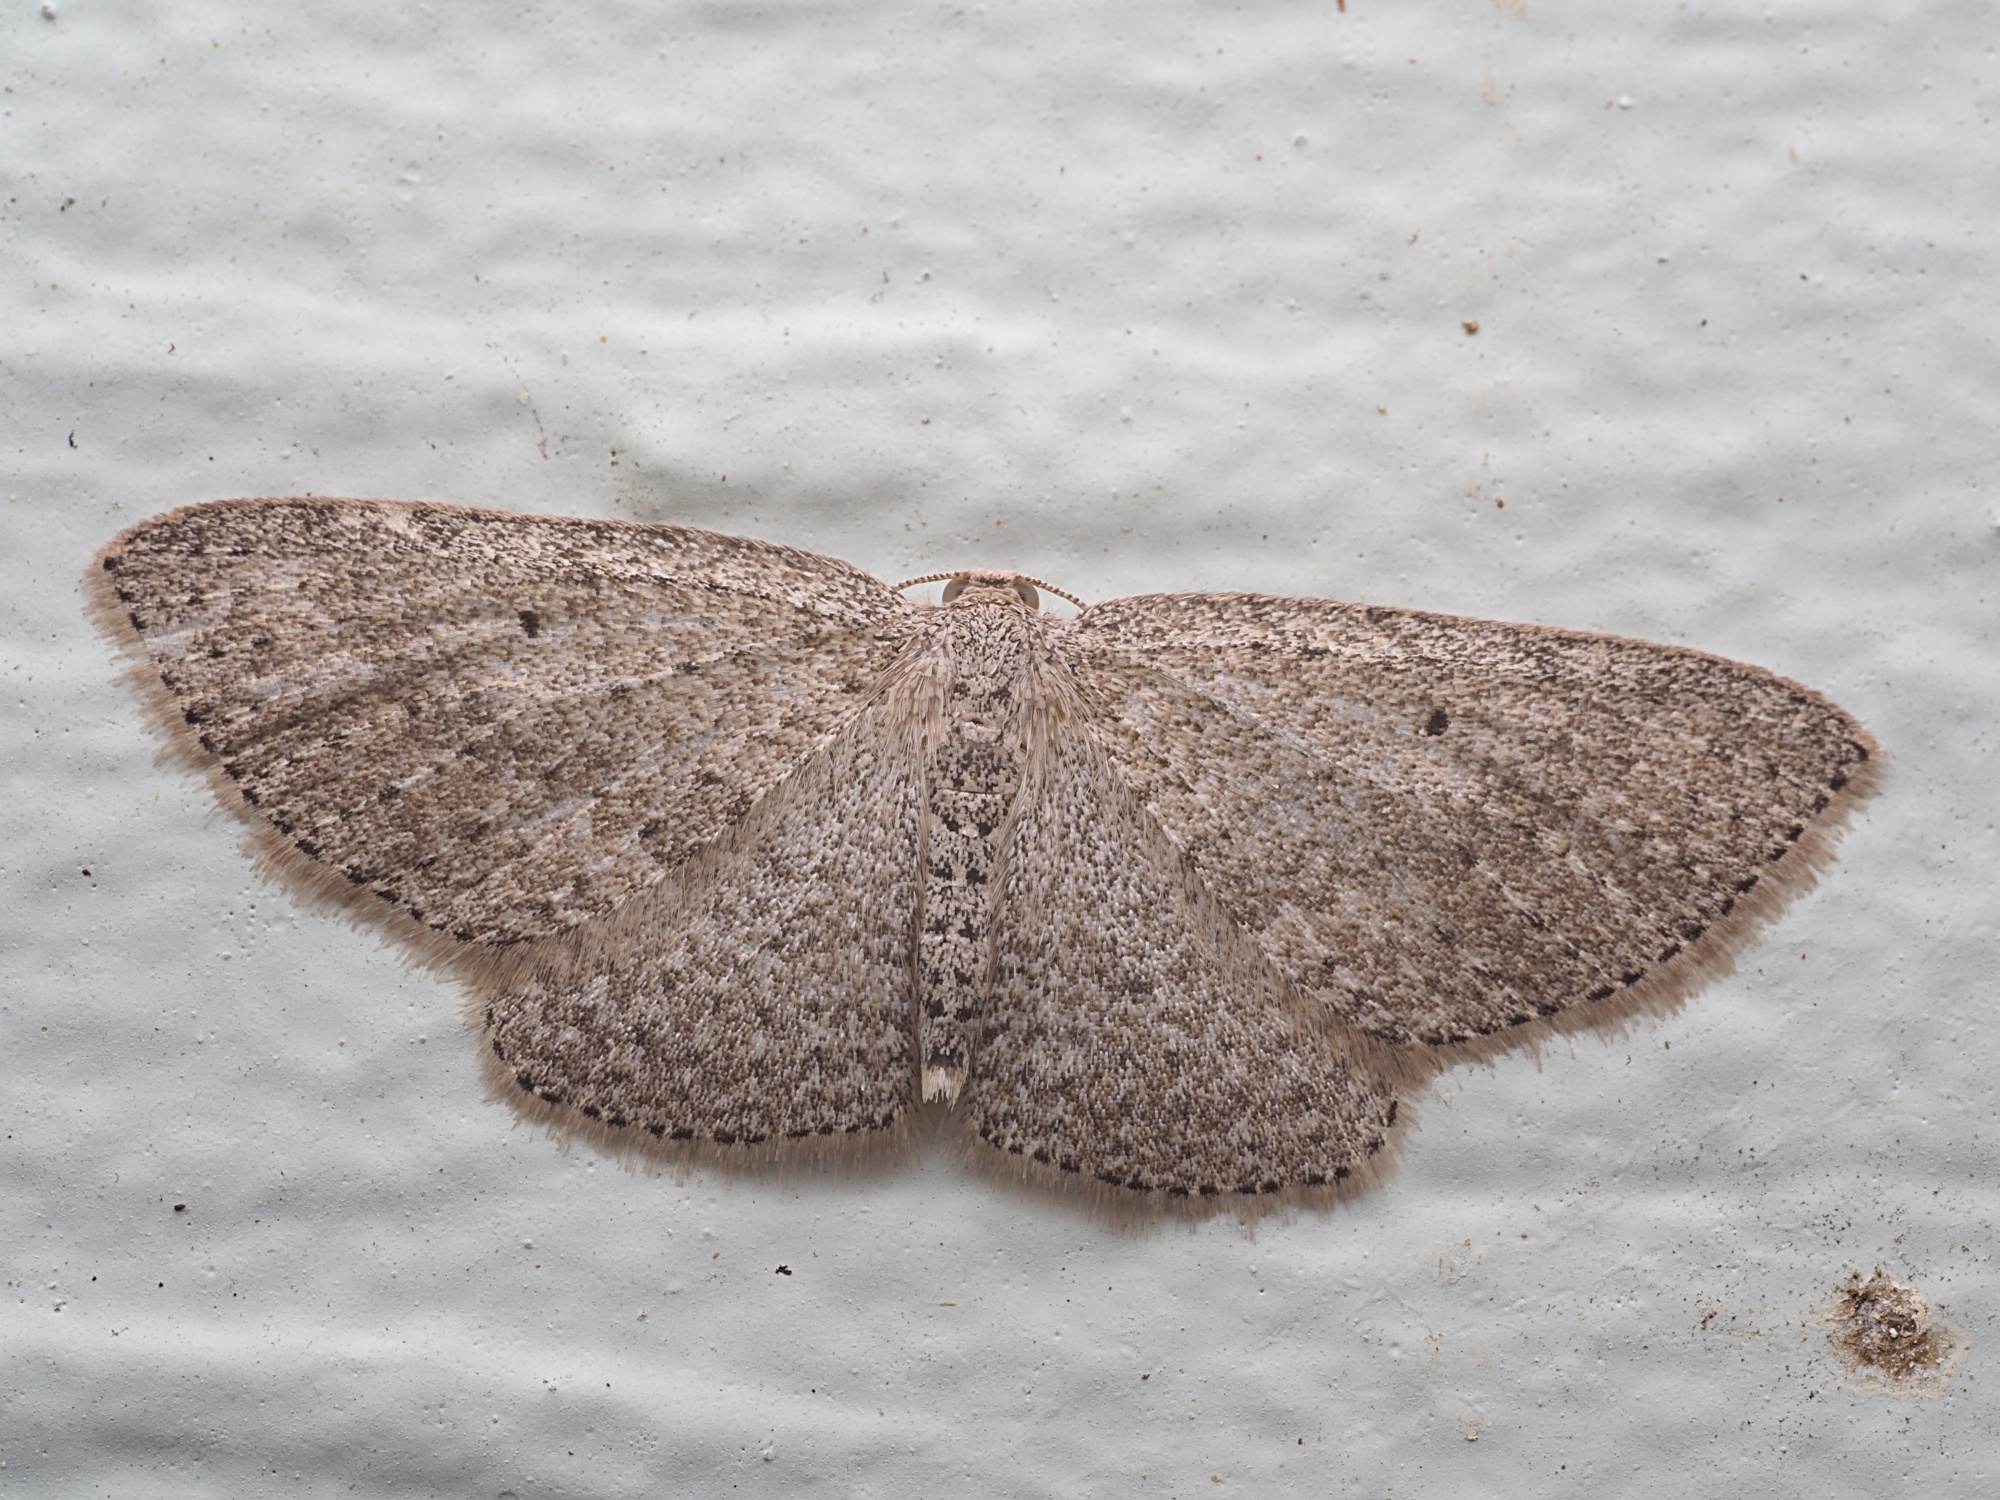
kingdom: Animalia
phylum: Arthropoda
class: Insecta
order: Lepidoptera
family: Geometridae
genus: Poecilasthena
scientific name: Poecilasthena schistaria
